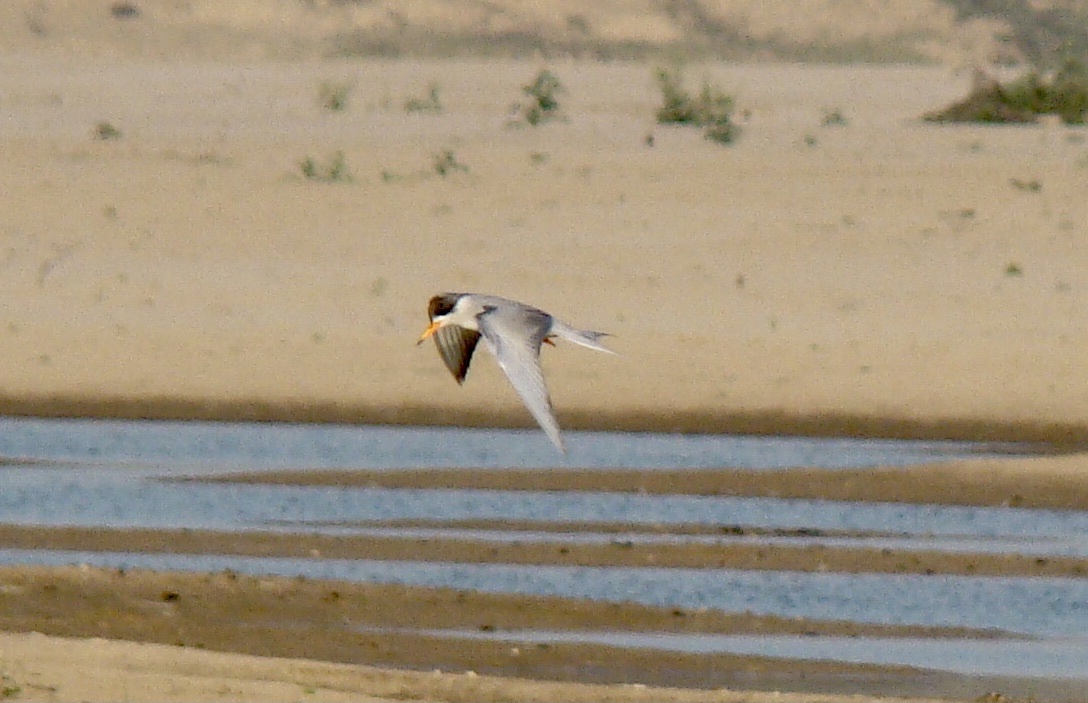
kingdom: Animalia
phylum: Chordata
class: Aves
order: Charadriiformes
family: Laridae
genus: Sterna
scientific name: Sterna acuticauda
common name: Black-bellied tern
